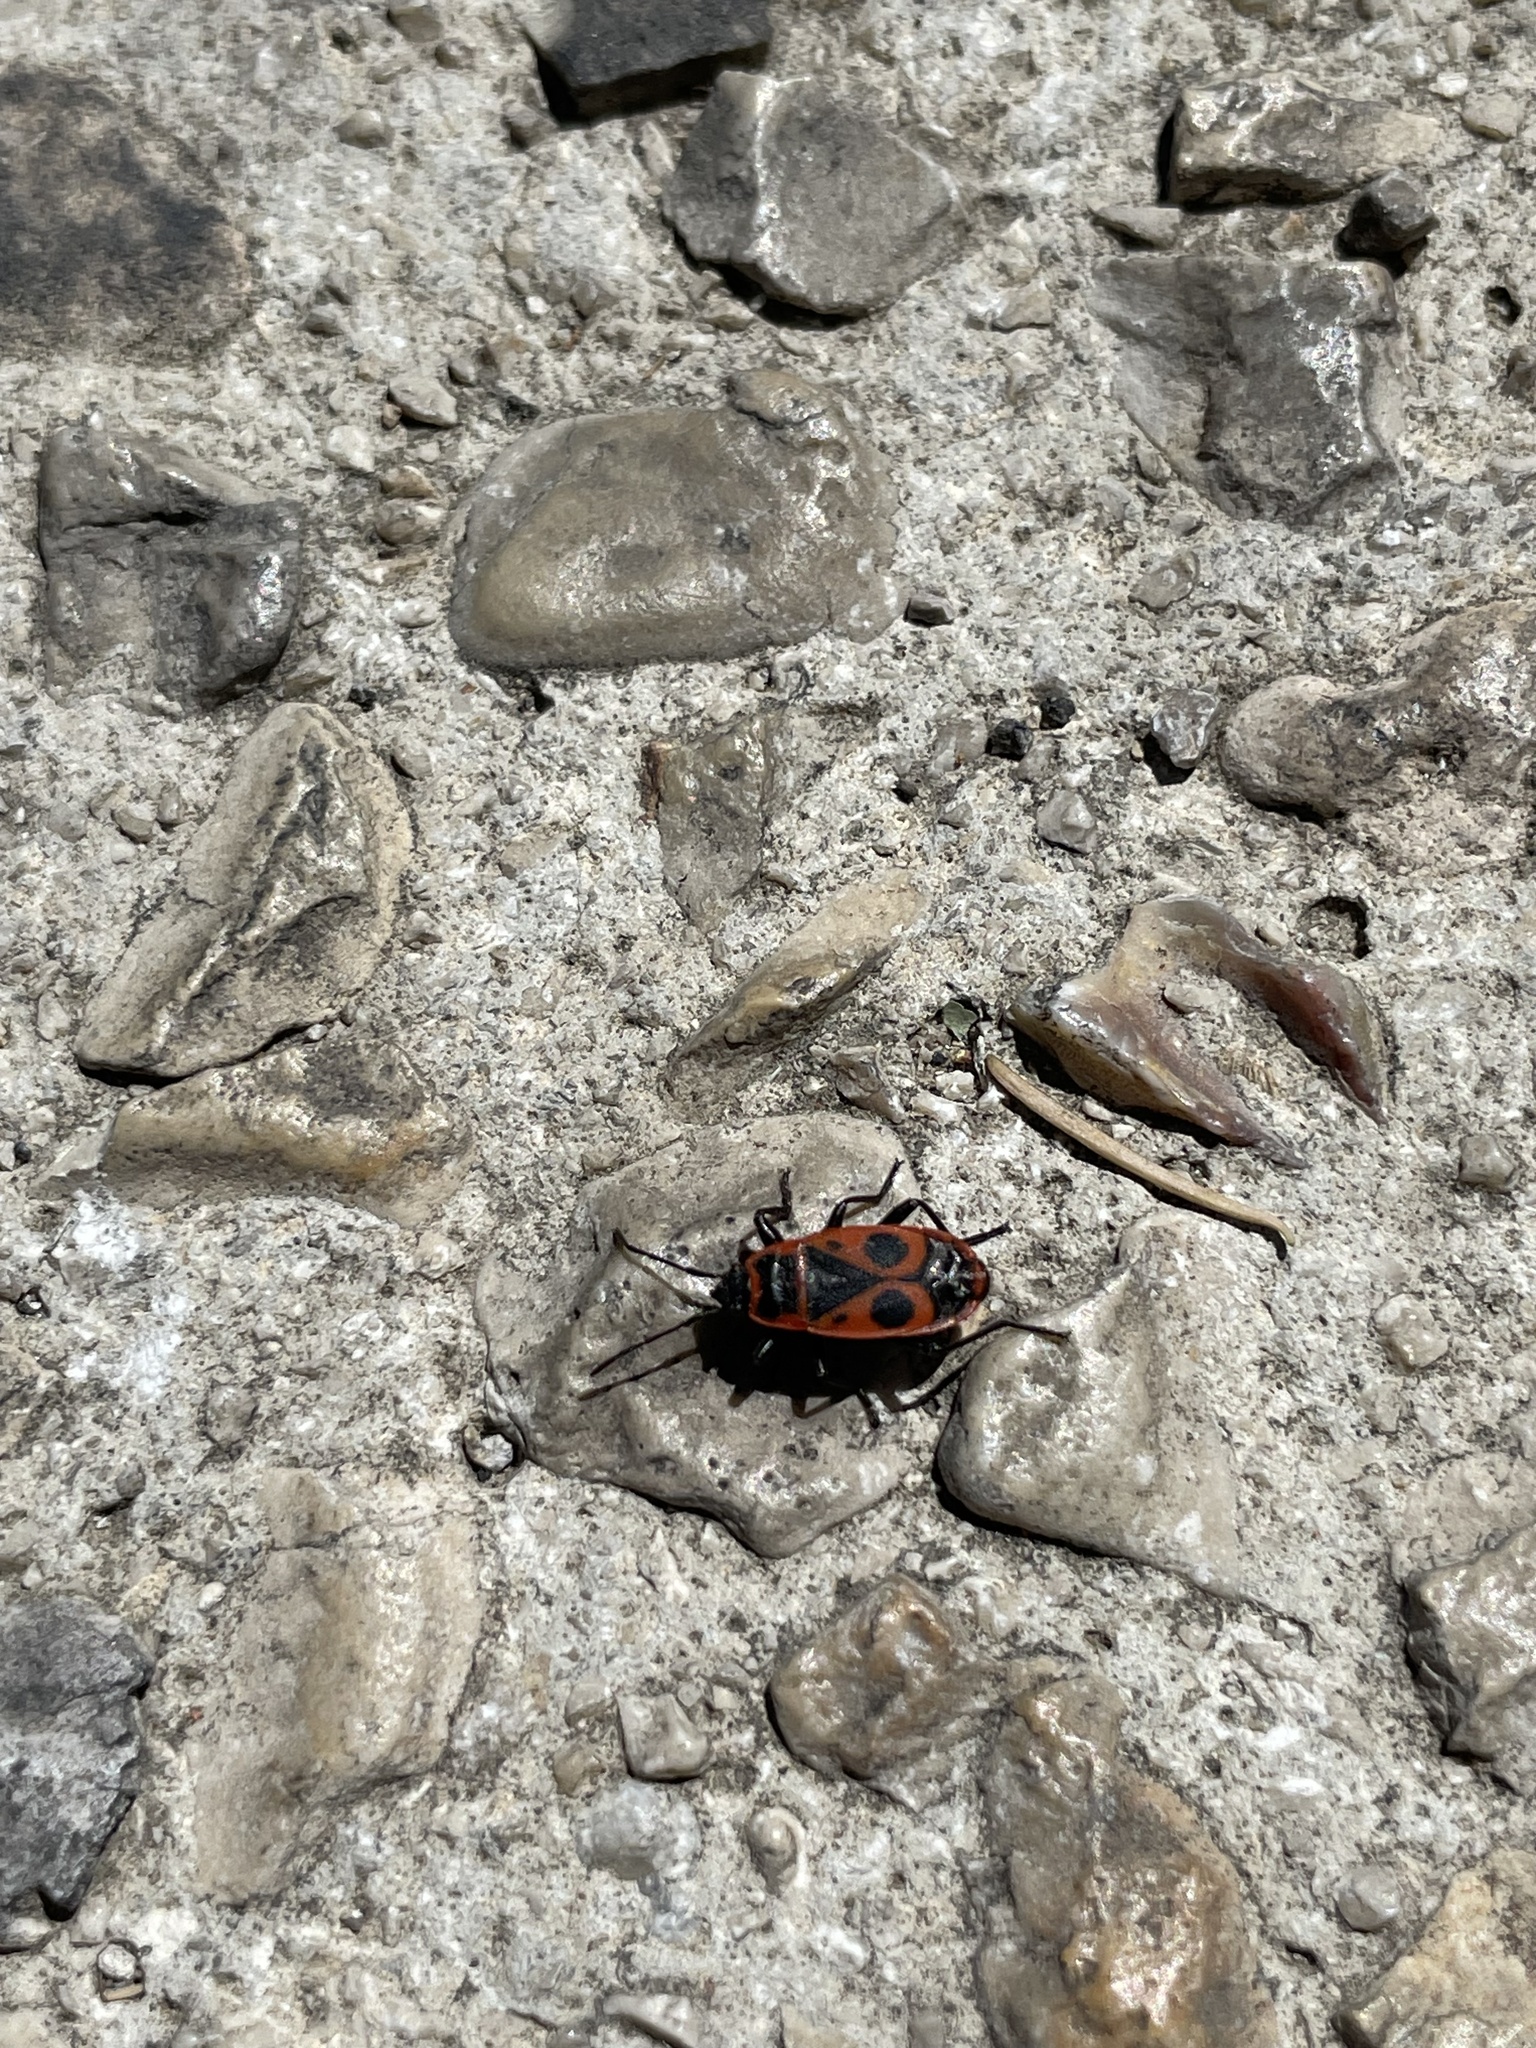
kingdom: Animalia
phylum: Arthropoda
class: Insecta
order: Hemiptera
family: Pyrrhocoridae
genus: Pyrrhocoris
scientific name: Pyrrhocoris apterus
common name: Firebug
